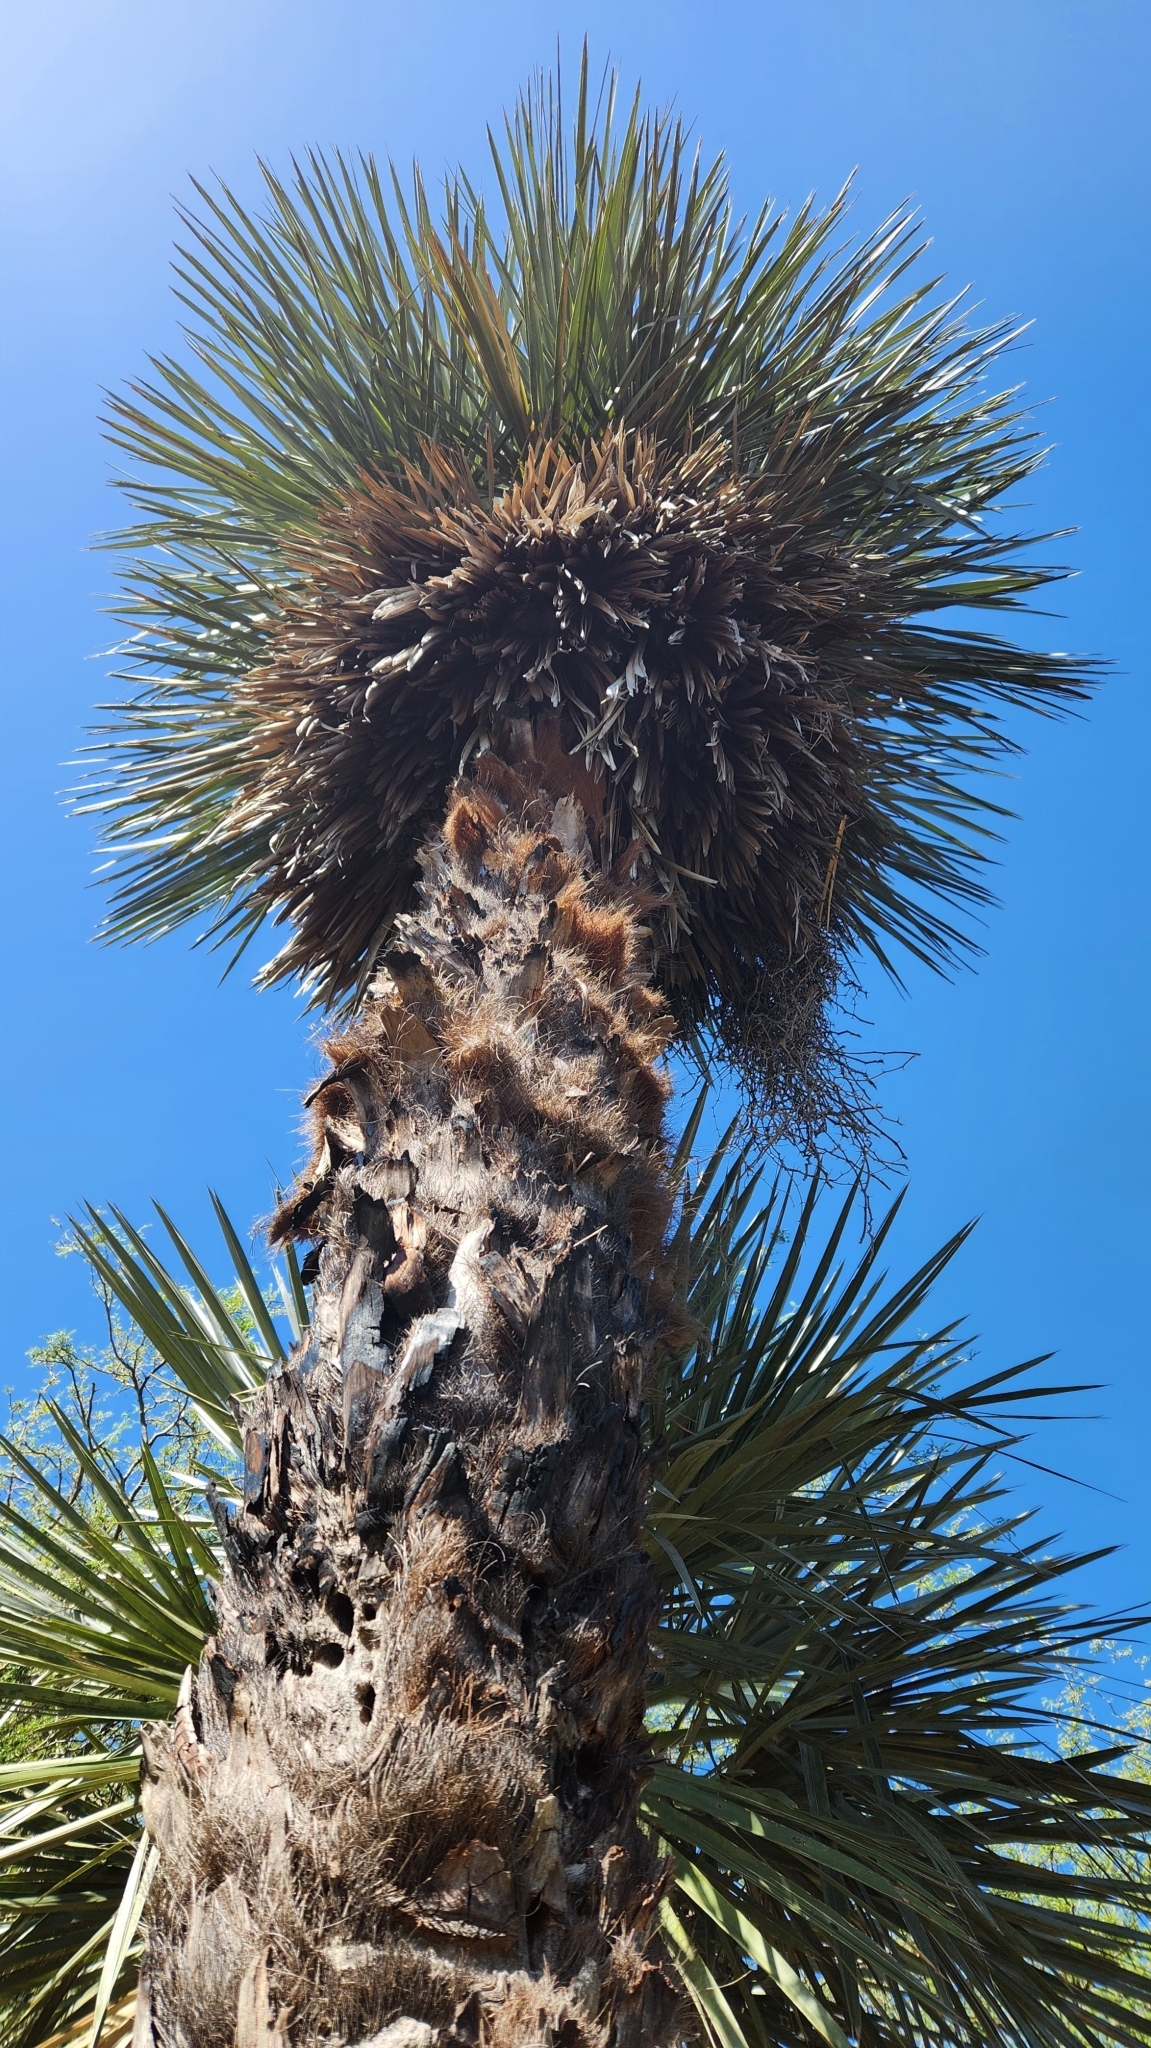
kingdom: Plantae
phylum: Tracheophyta
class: Liliopsida
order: Arecales
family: Arecaceae
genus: Trithrinax
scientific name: Trithrinax campestris
